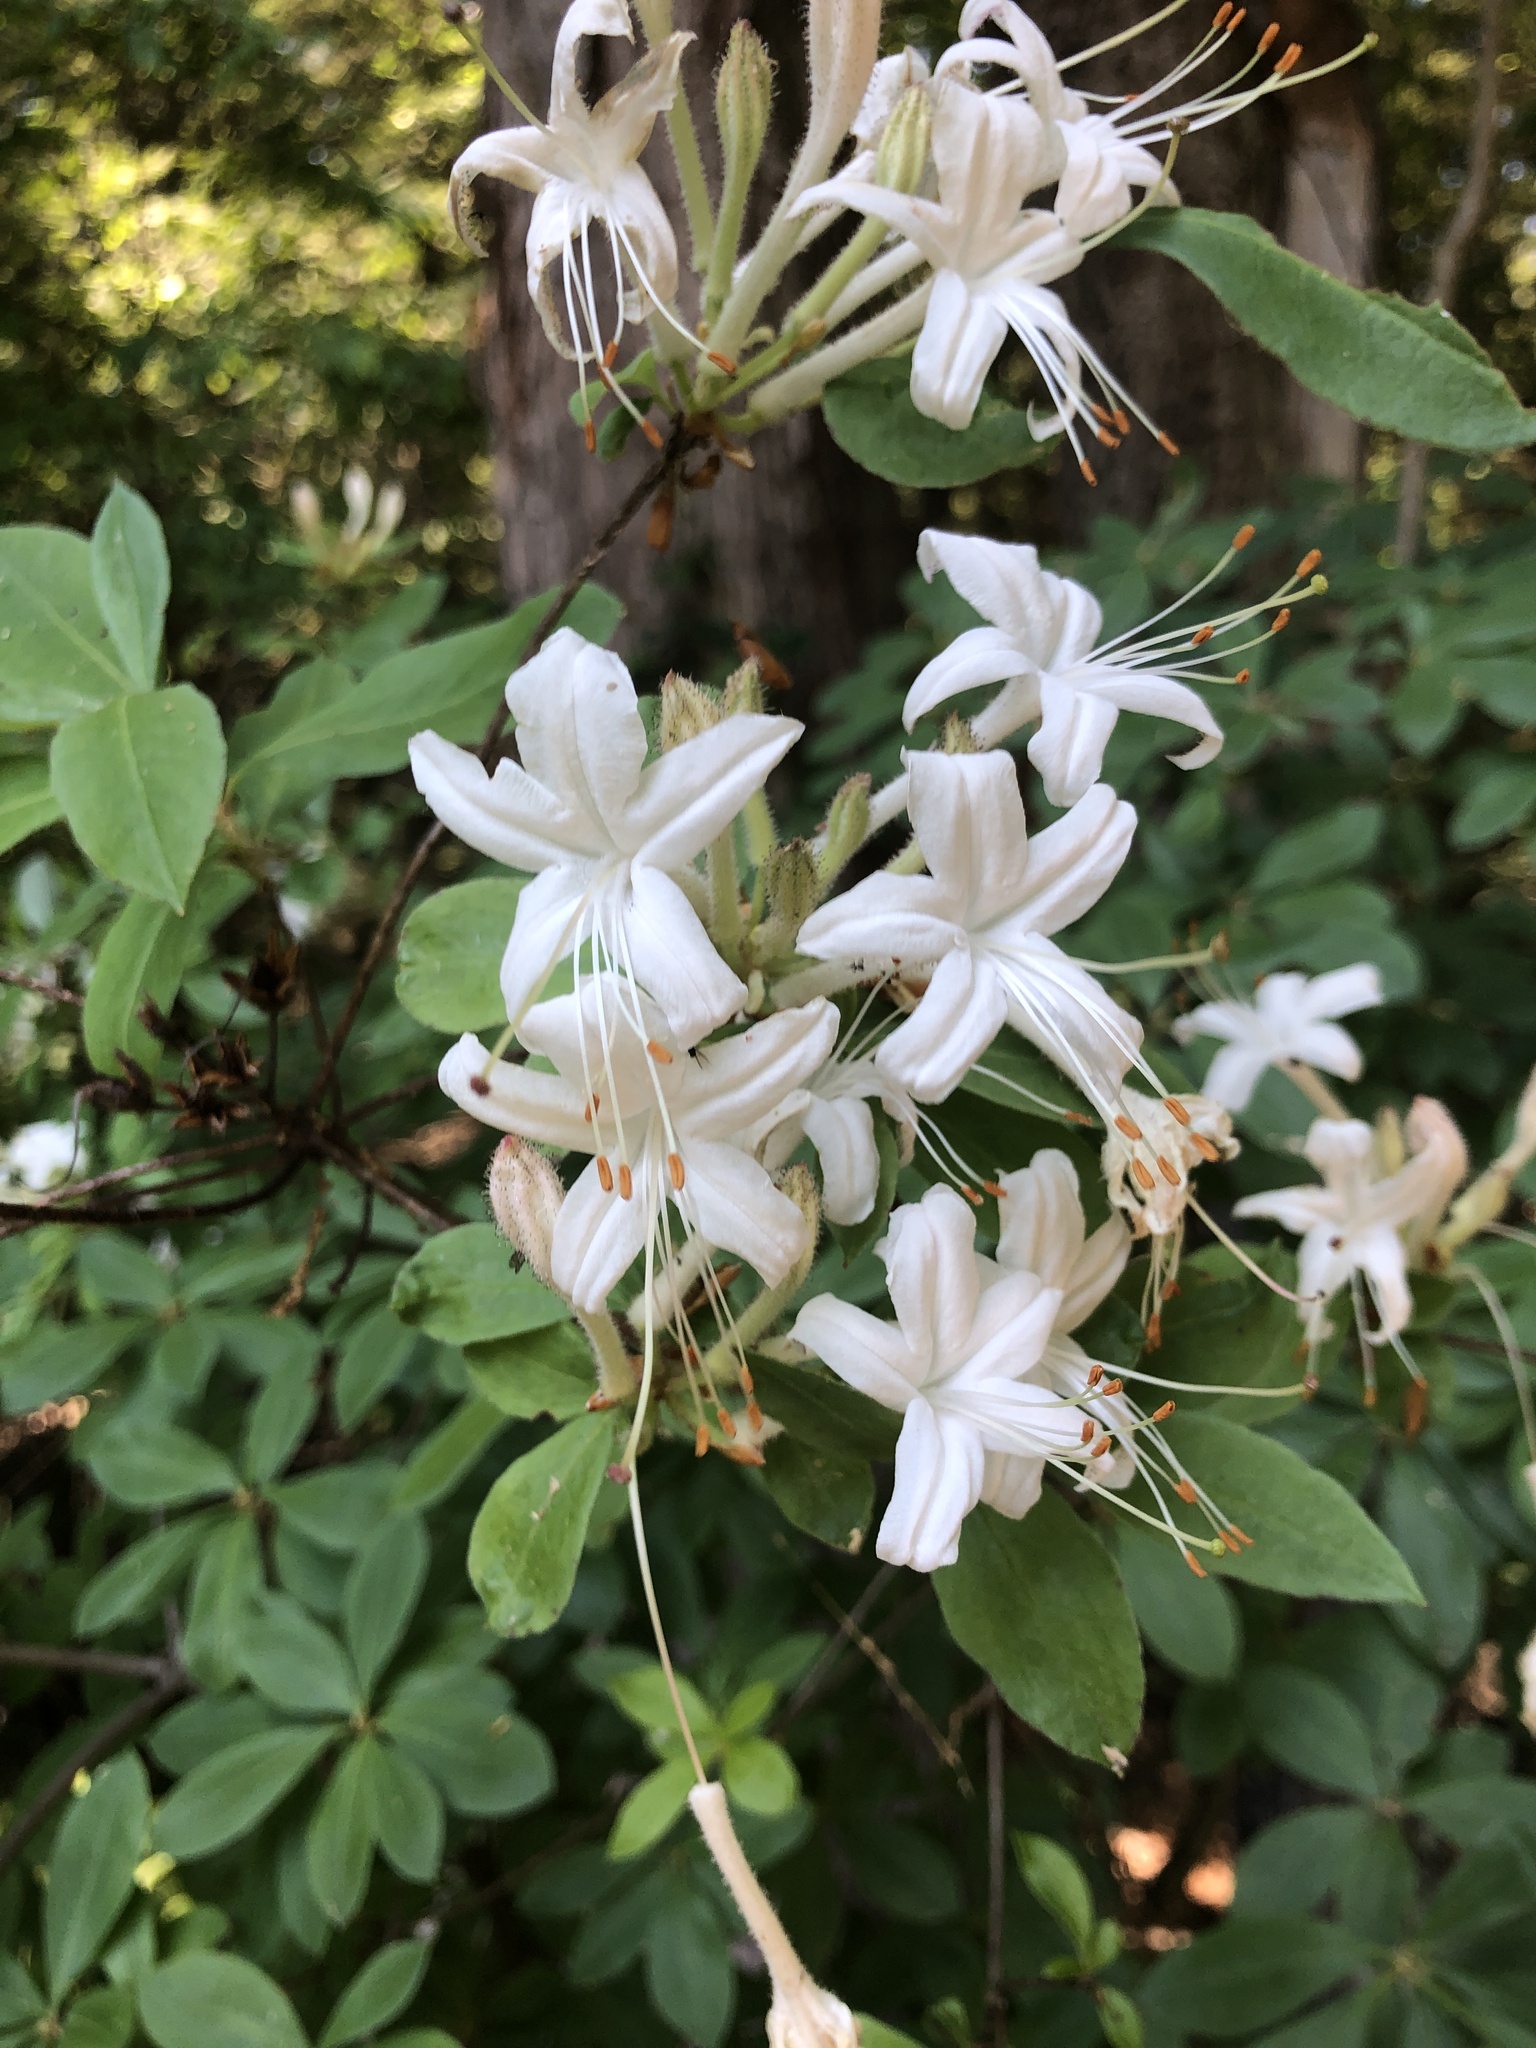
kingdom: Plantae
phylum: Tracheophyta
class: Magnoliopsida
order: Ericales
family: Ericaceae
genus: Rhododendron
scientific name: Rhododendron viscosum
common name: Clammy azalea
